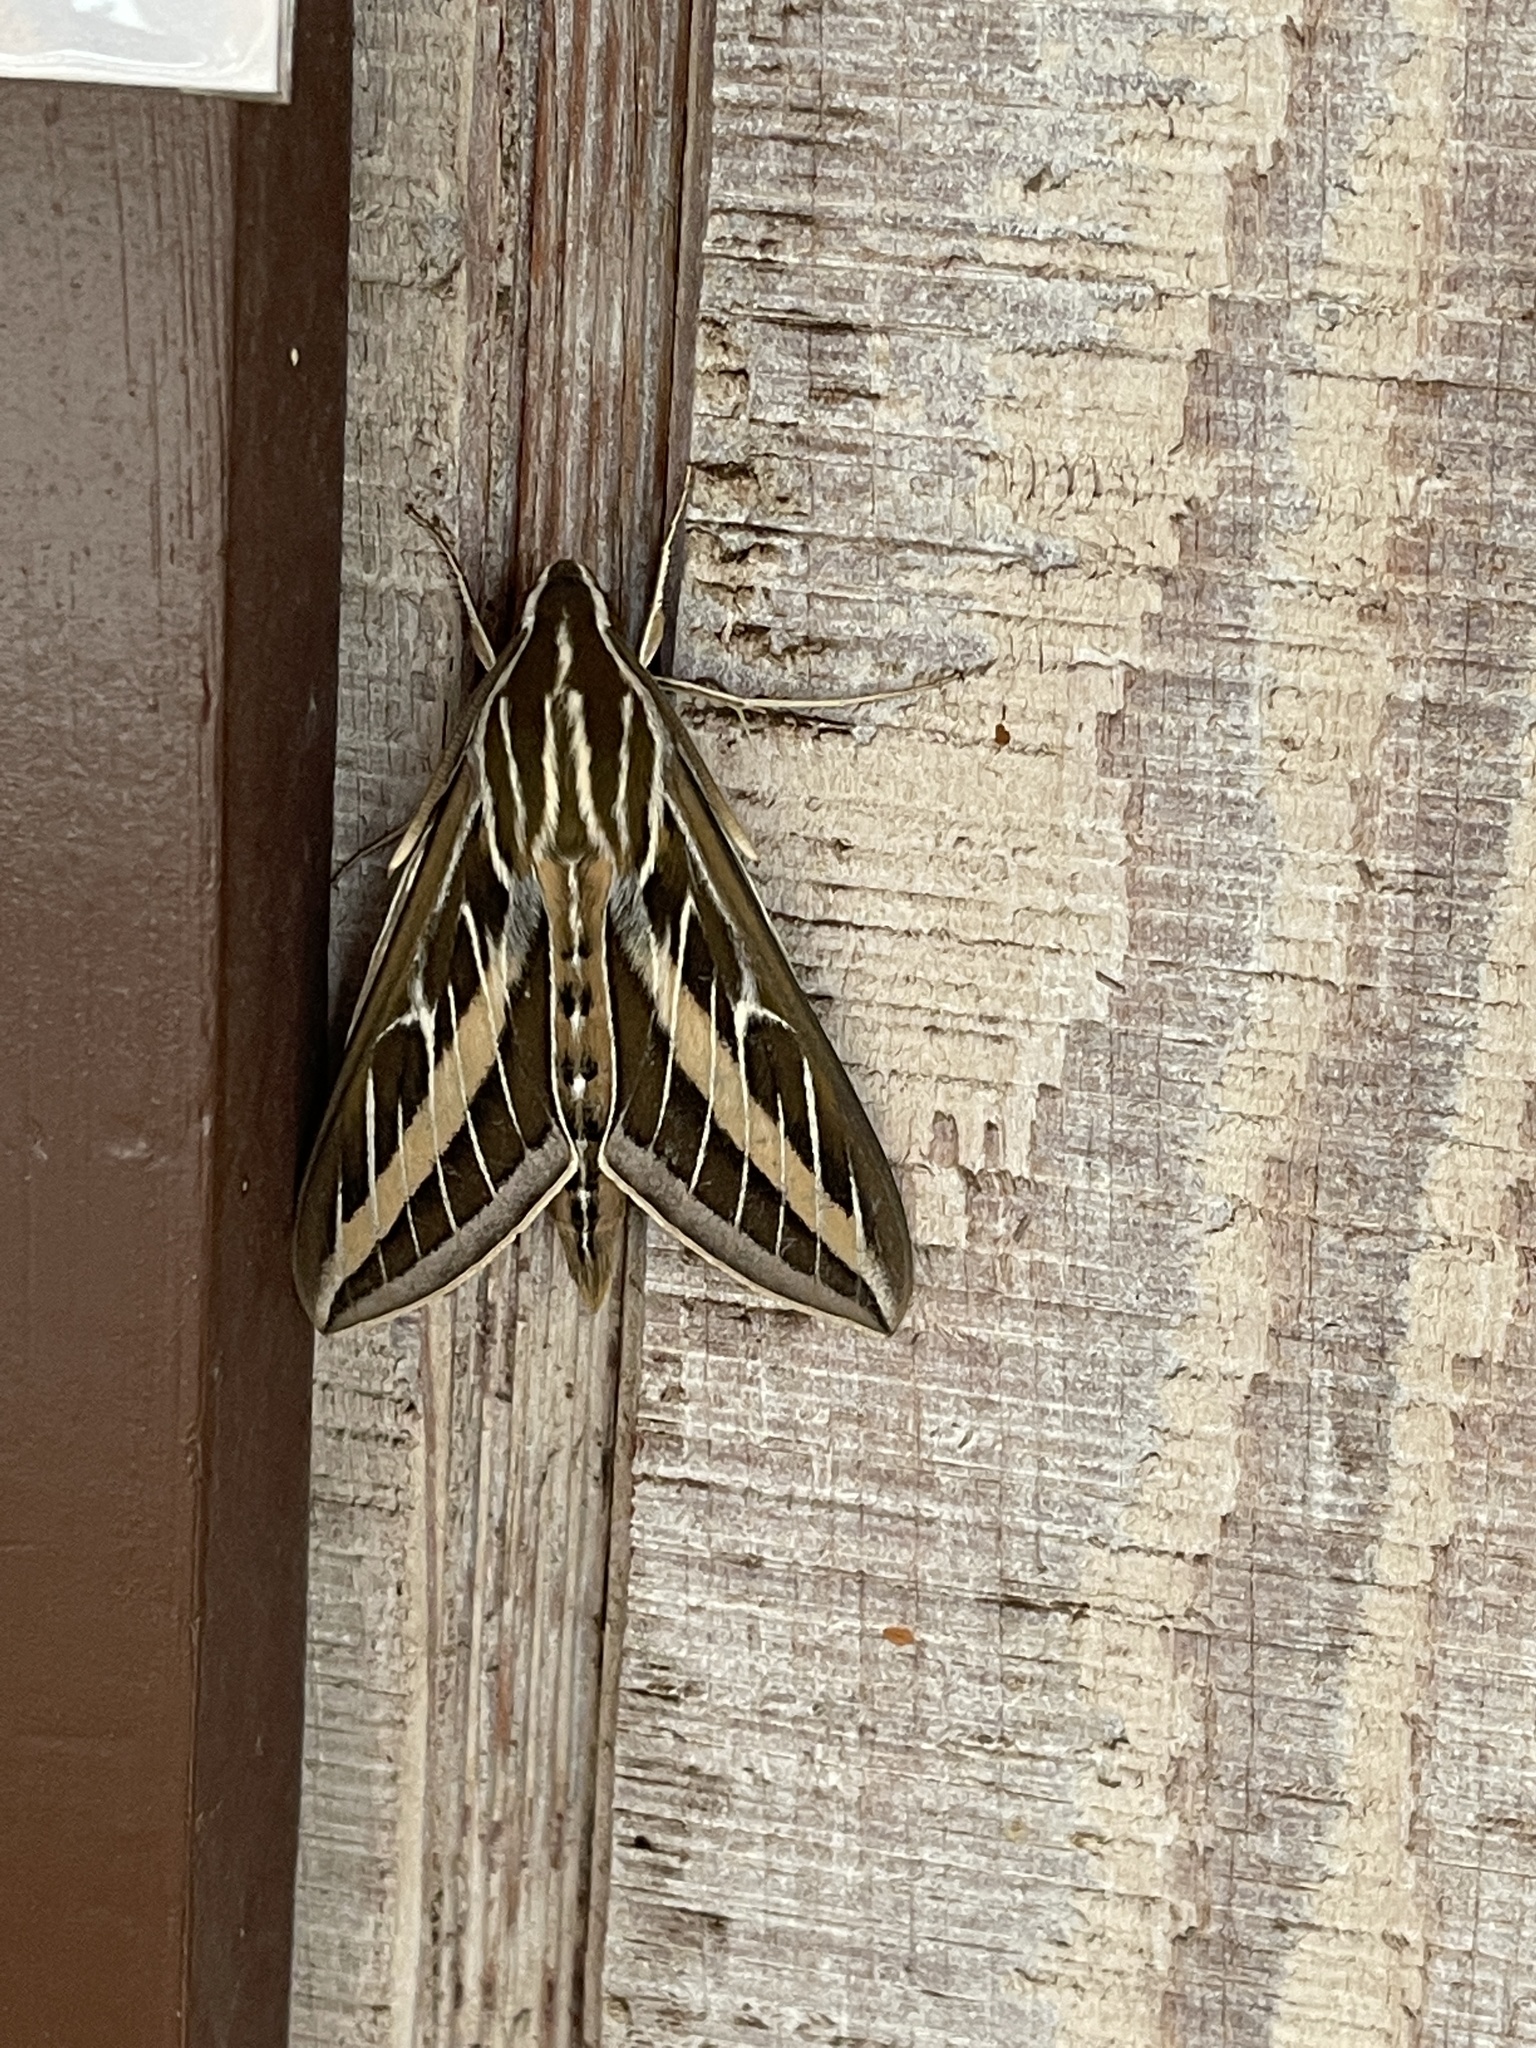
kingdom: Animalia
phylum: Arthropoda
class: Insecta
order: Lepidoptera
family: Sphingidae
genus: Hyles
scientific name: Hyles lineata
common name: White-lined sphinx
